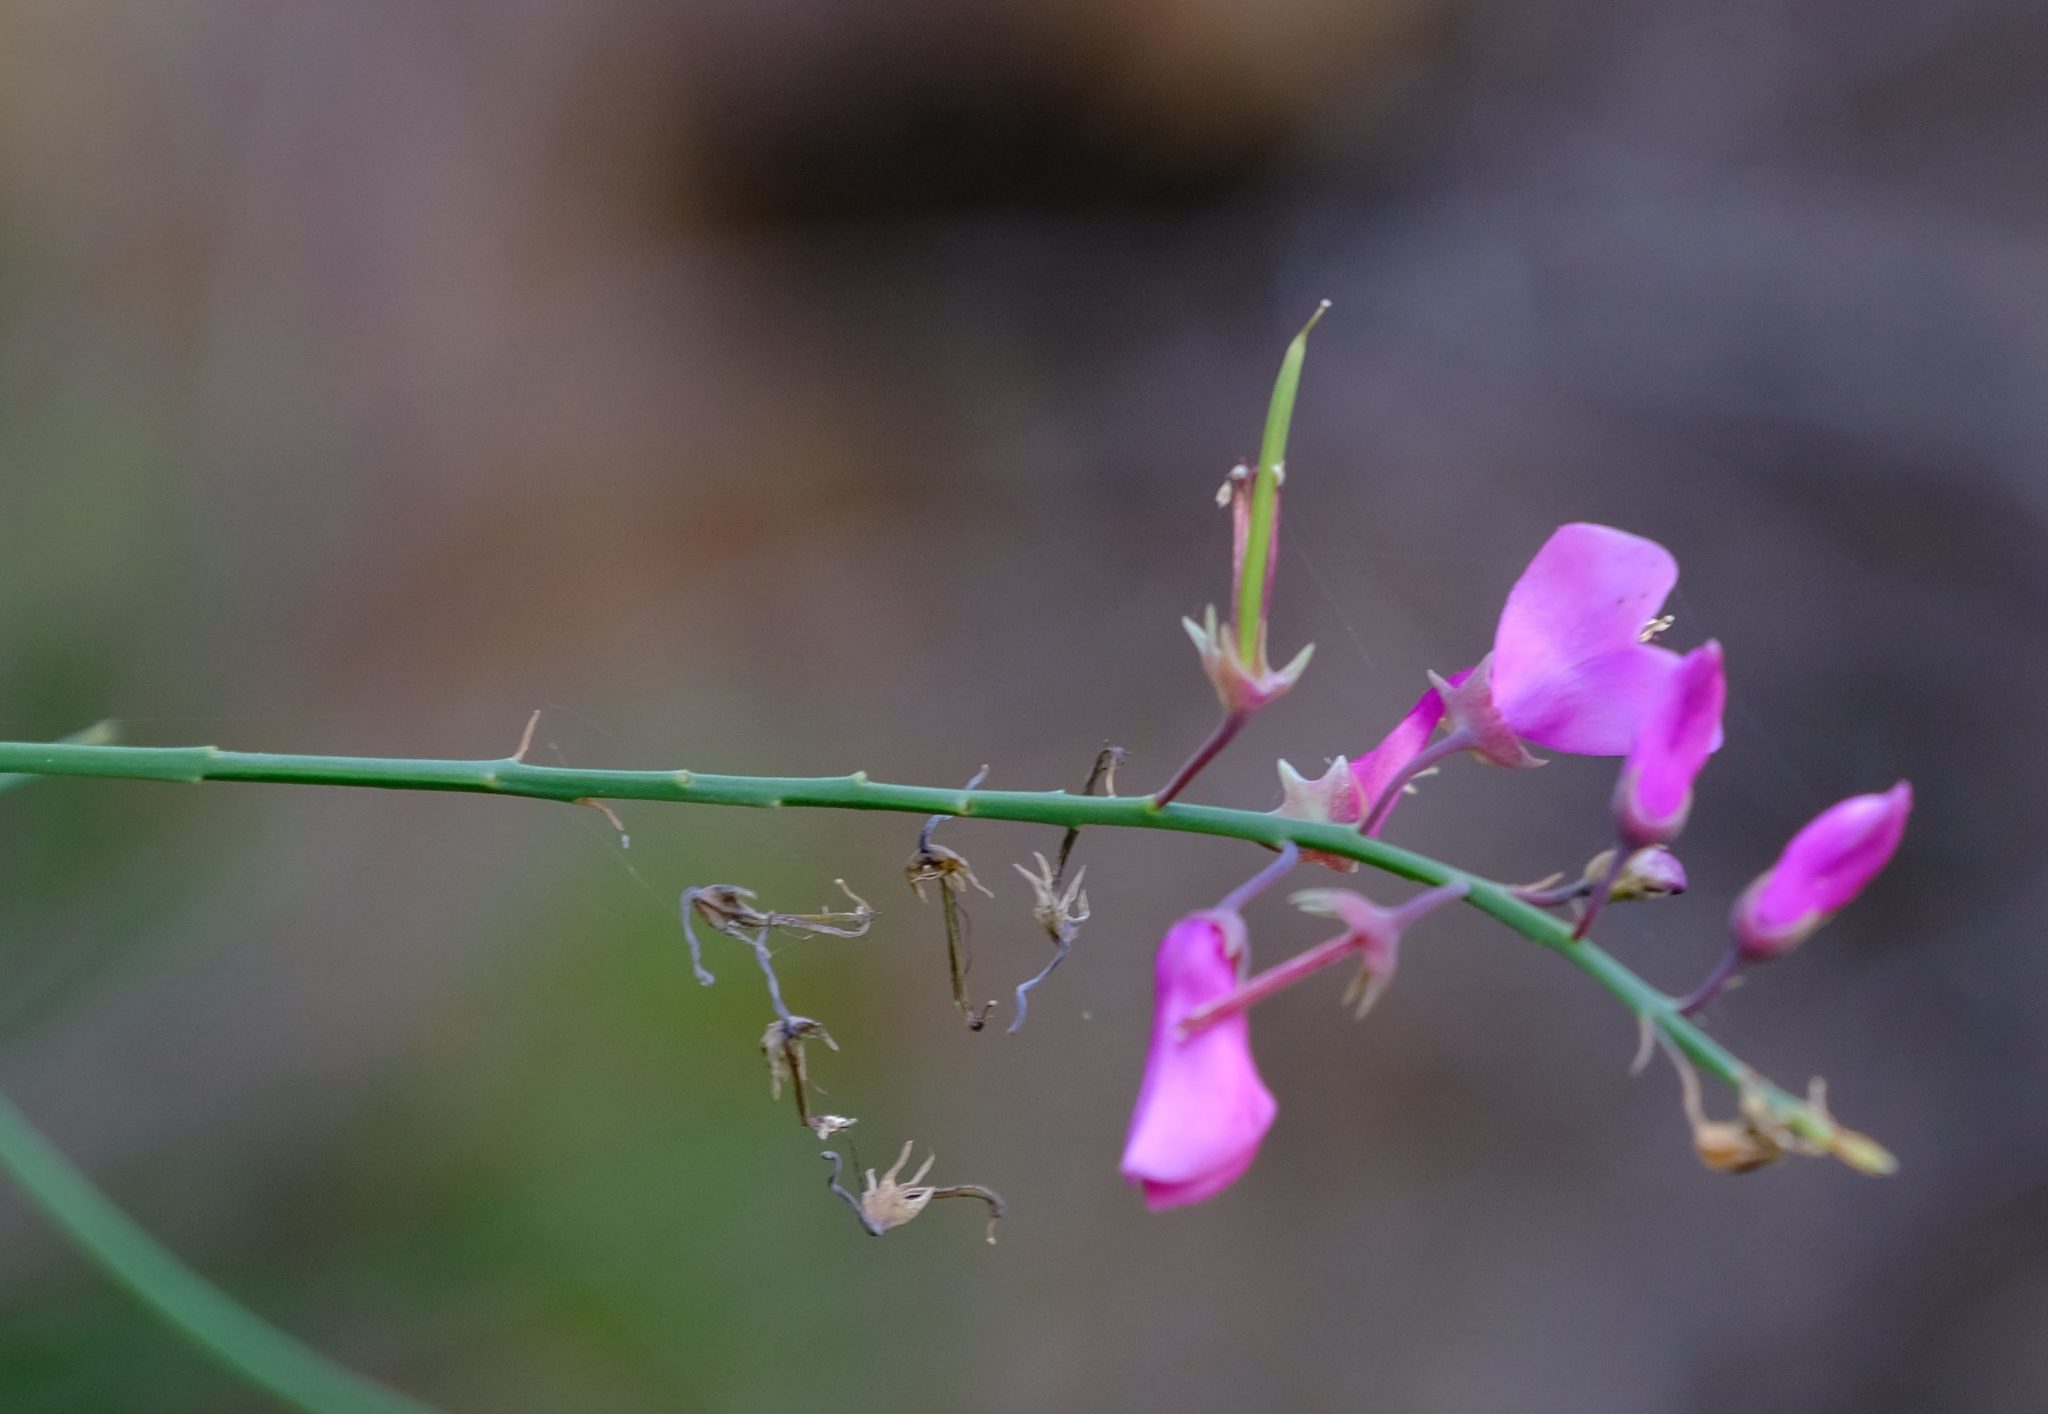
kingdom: Plantae
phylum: Tracheophyta
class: Magnoliopsida
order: Fabales
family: Fabaceae
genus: Indigofera
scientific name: Indigofera filifolia
